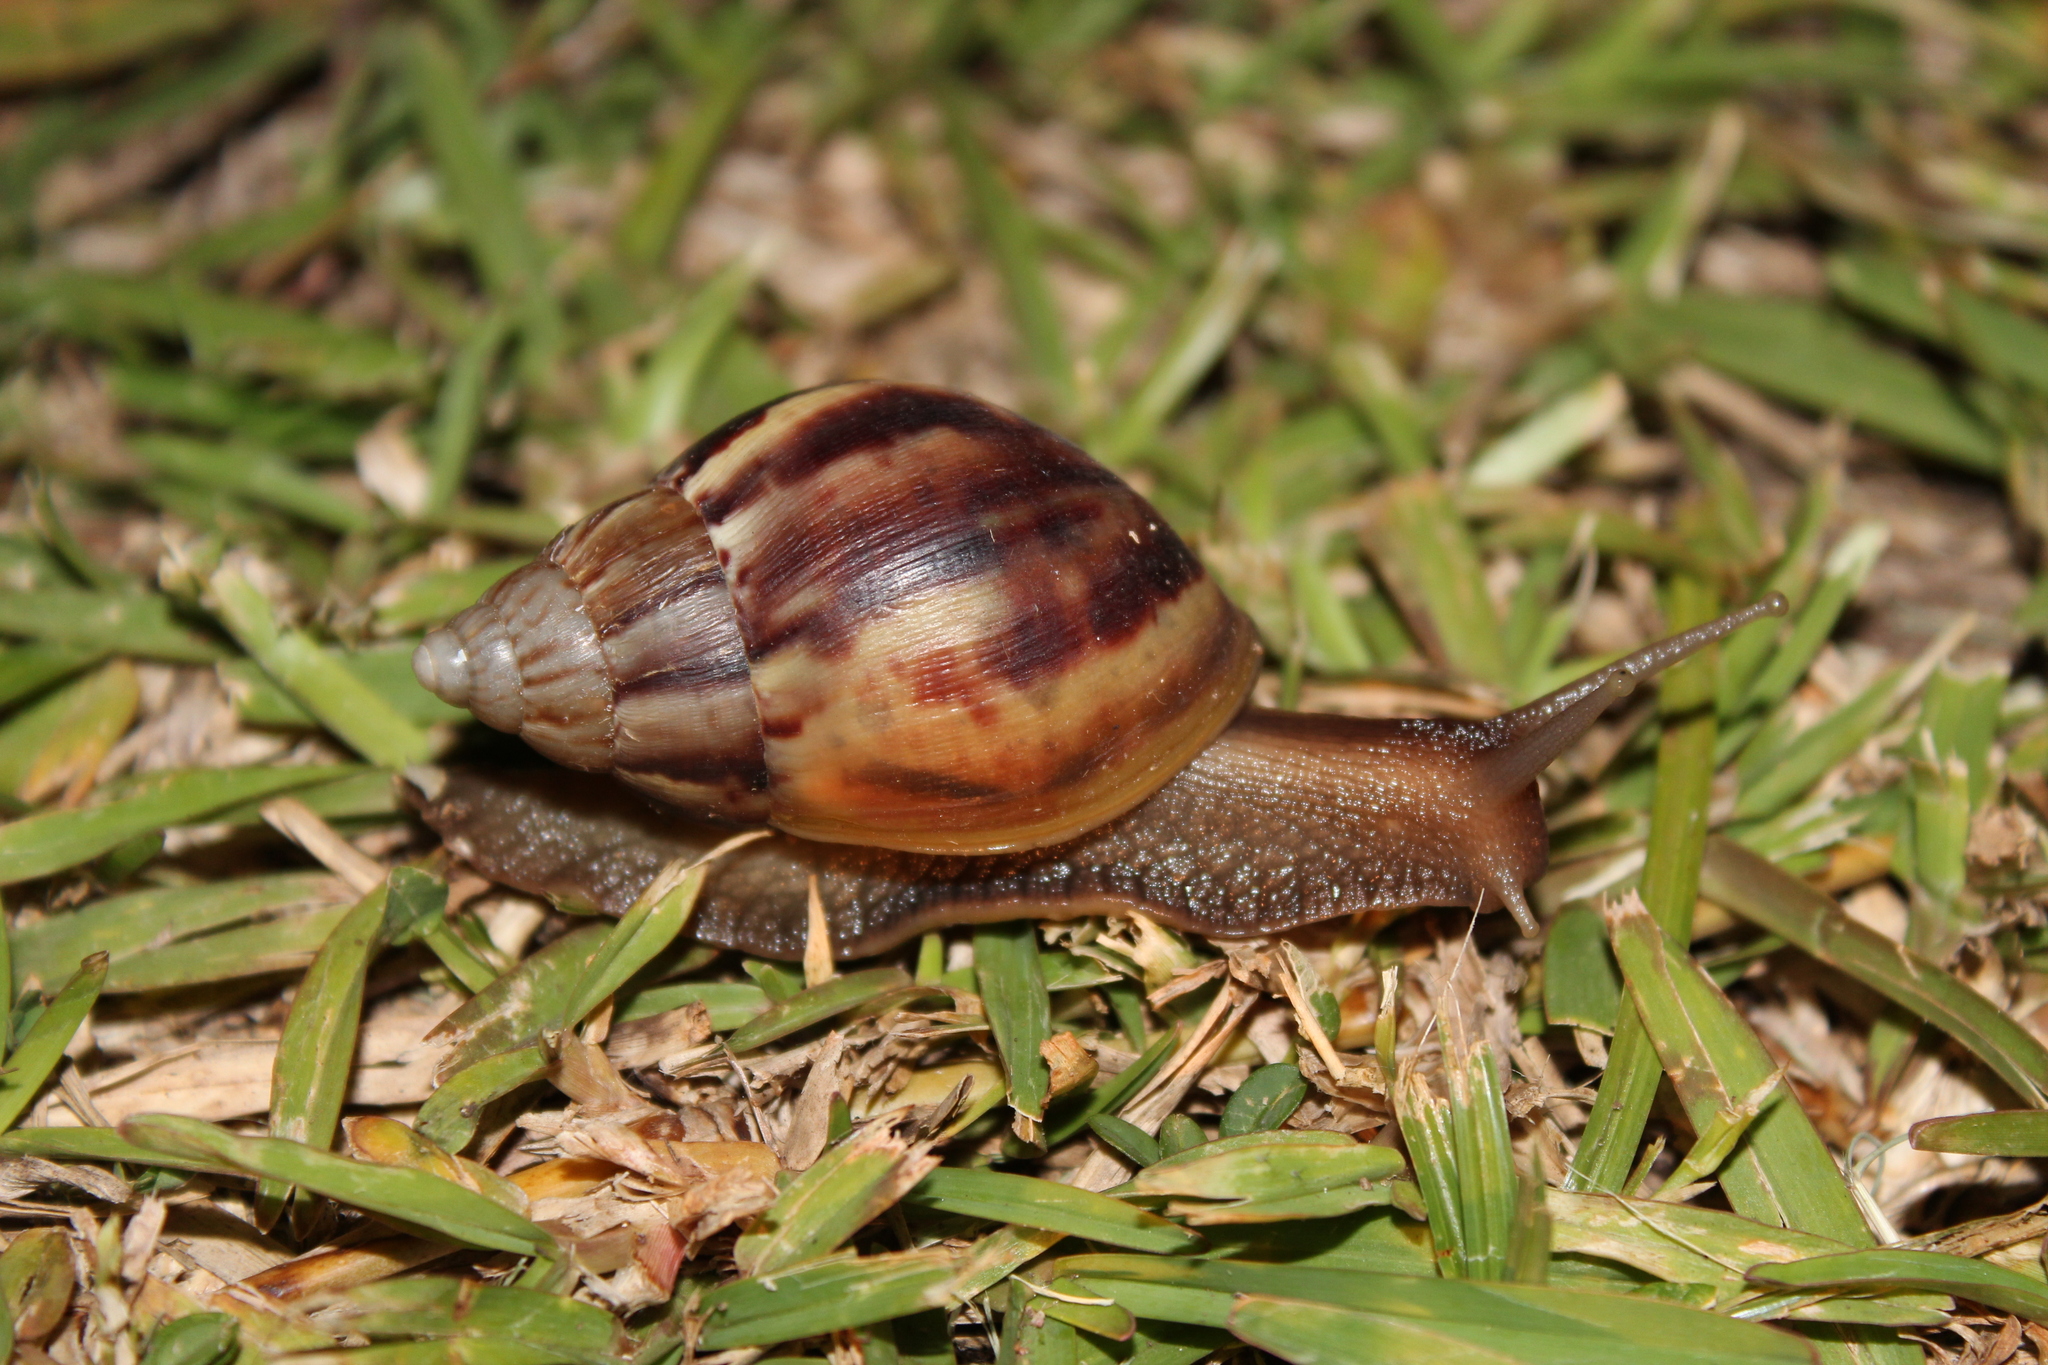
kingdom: Animalia
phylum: Mollusca
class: Gastropoda
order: Stylommatophora
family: Achatinidae
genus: Lissachatina
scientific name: Lissachatina fulica
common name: Giant african snail
